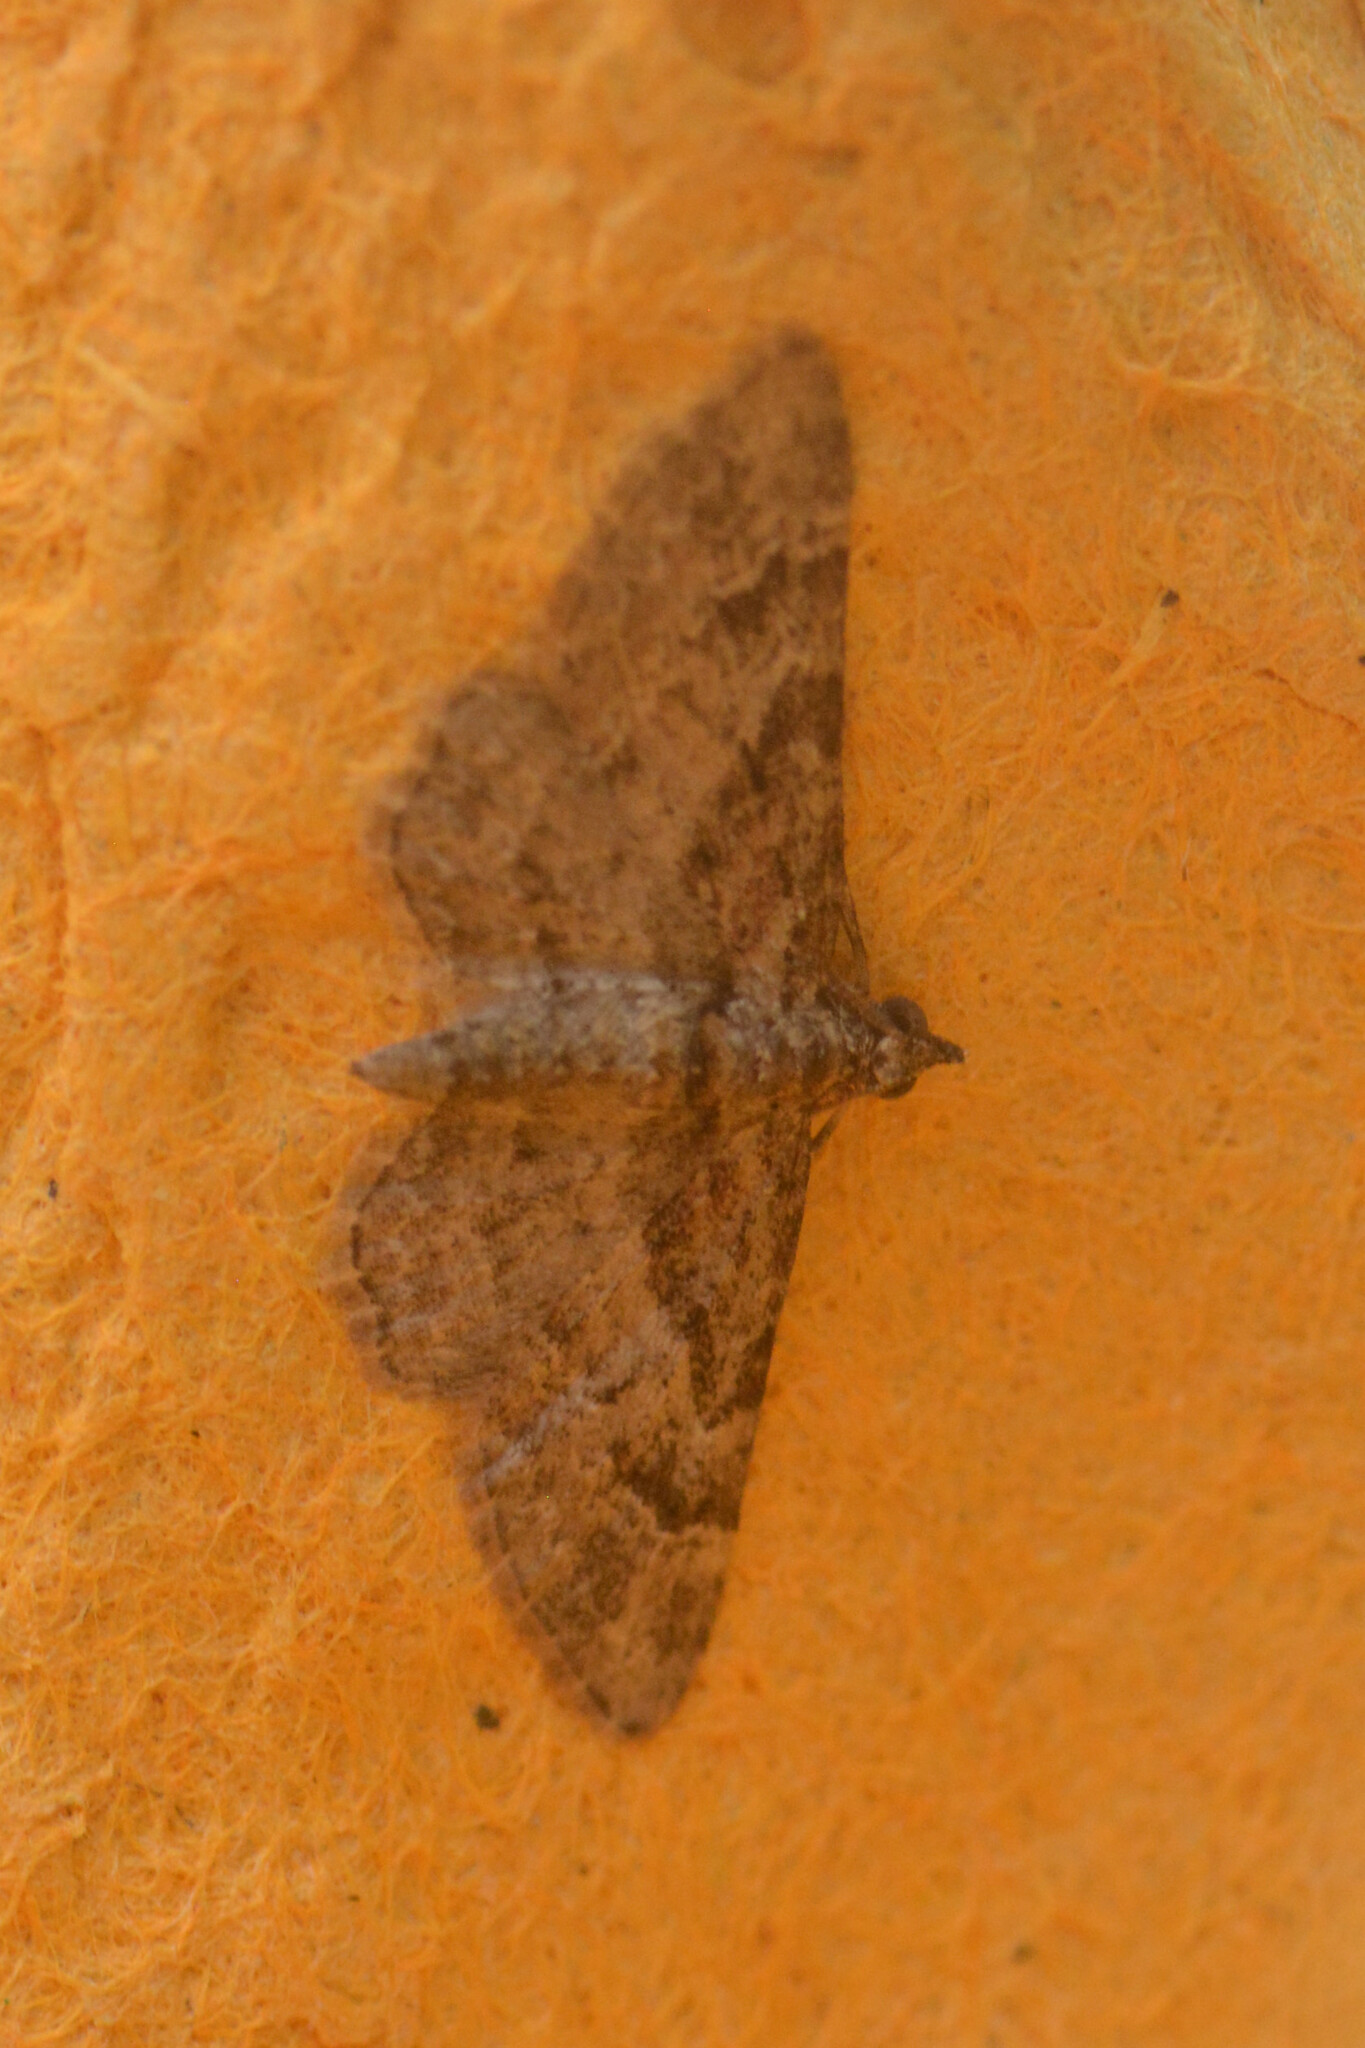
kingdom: Animalia
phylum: Arthropoda
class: Insecta
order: Lepidoptera
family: Geometridae
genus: Gymnoscelis
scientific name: Gymnoscelis rufifasciata
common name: Double-striped pug
